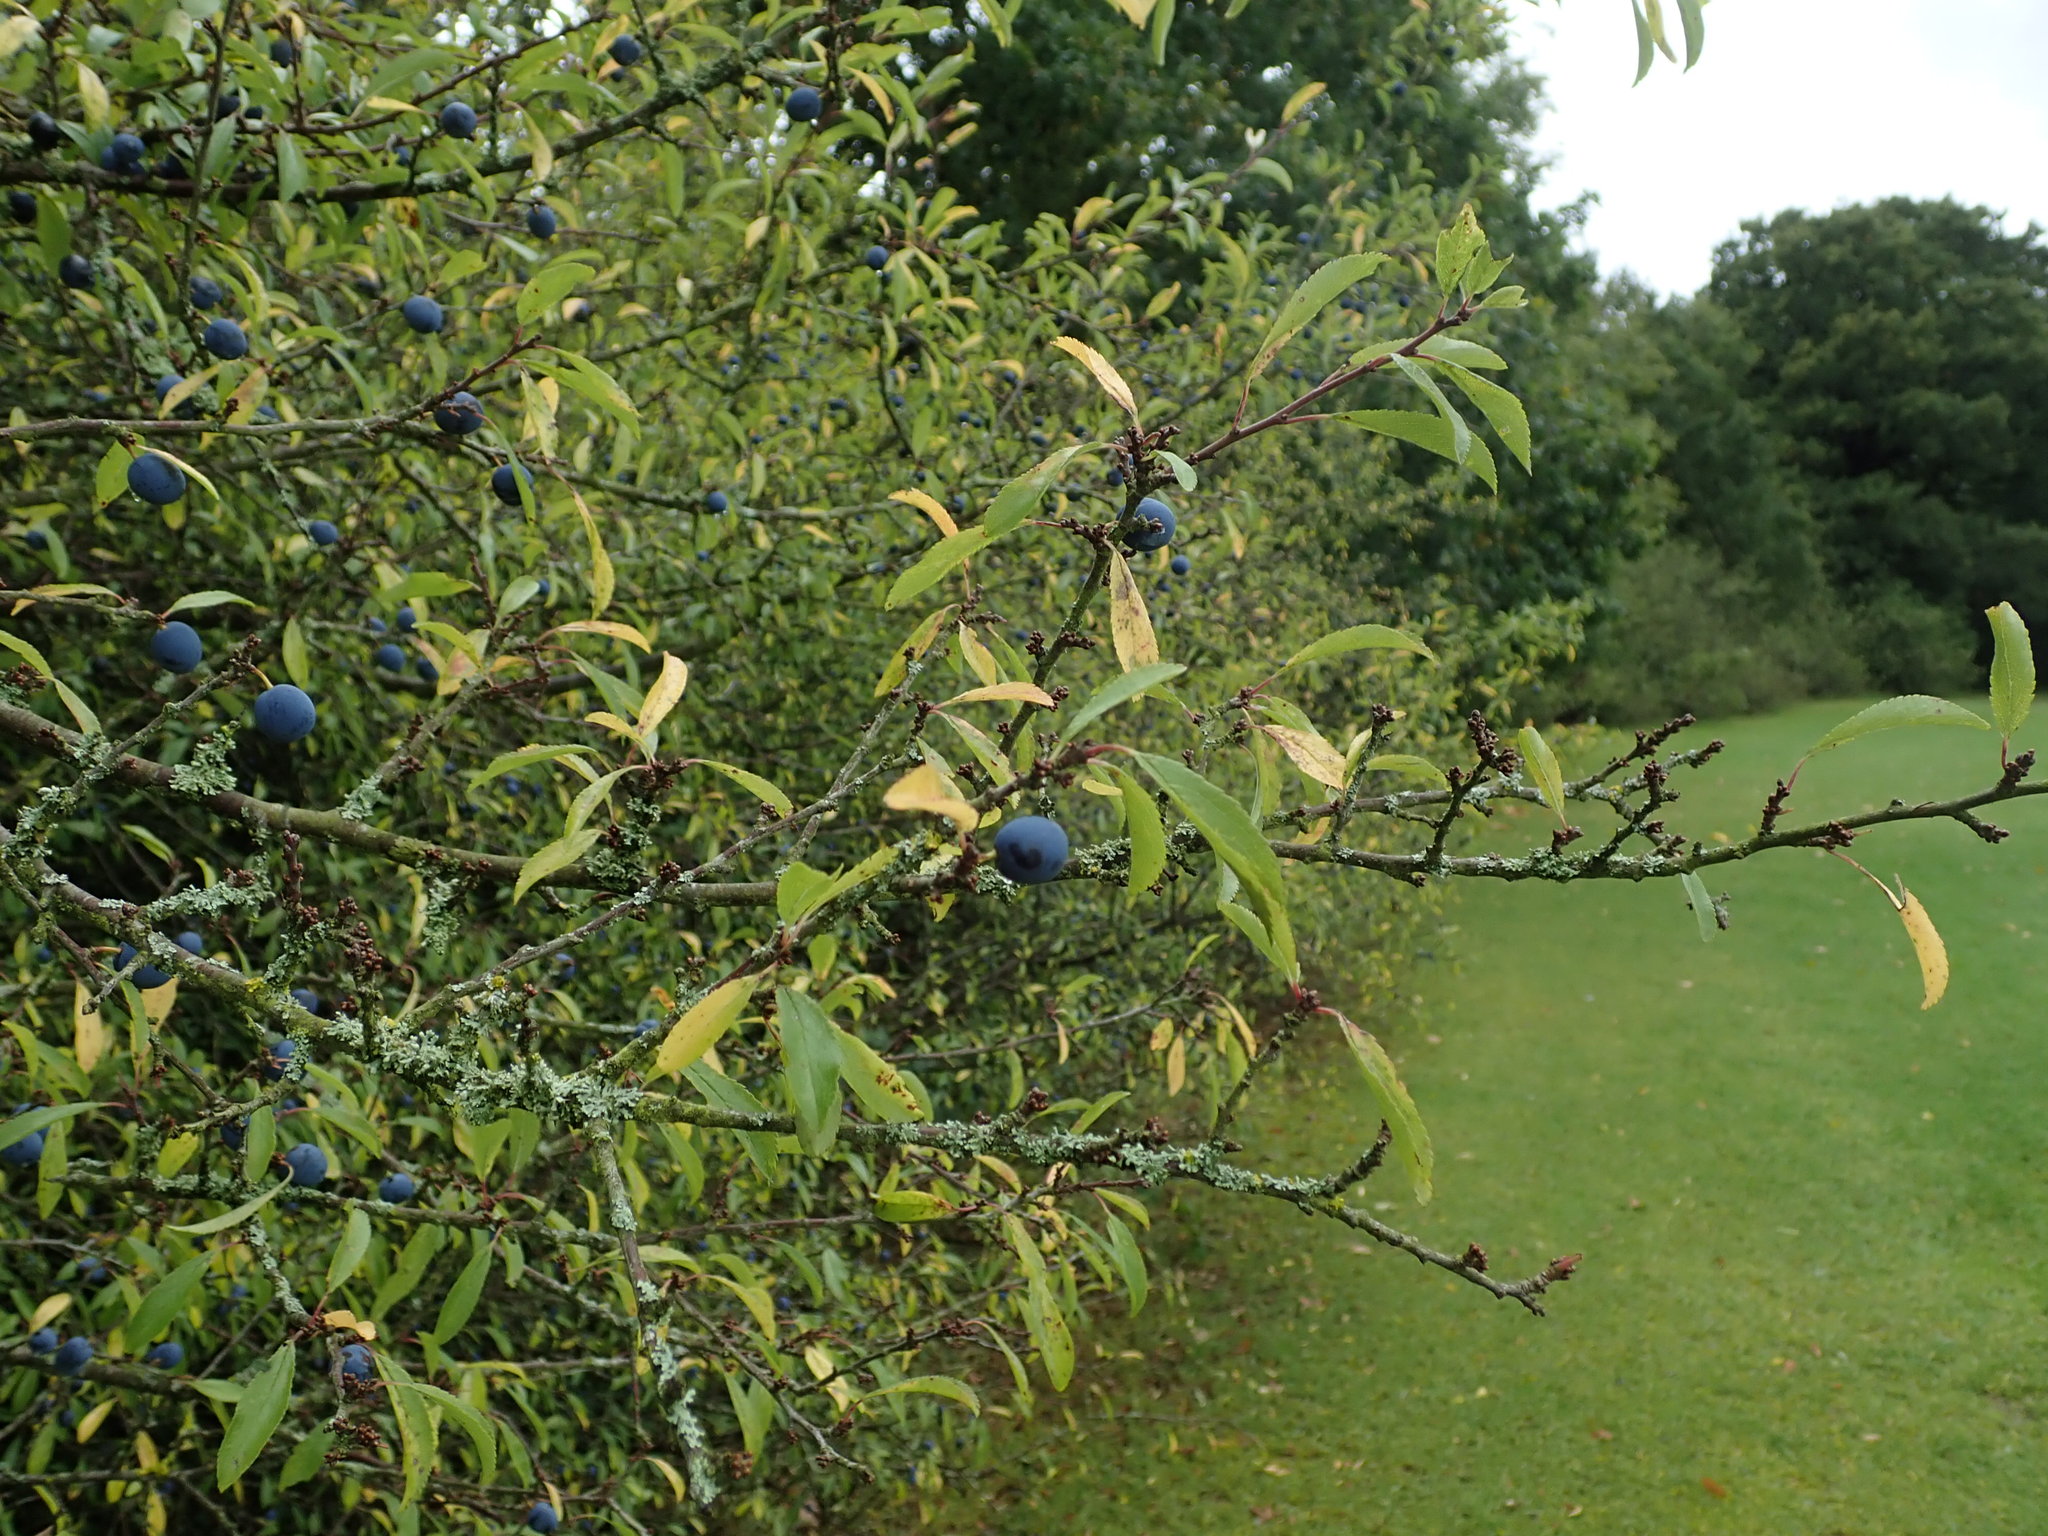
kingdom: Plantae
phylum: Tracheophyta
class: Magnoliopsida
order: Rosales
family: Rosaceae
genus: Prunus
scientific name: Prunus spinosa
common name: Blackthorn
